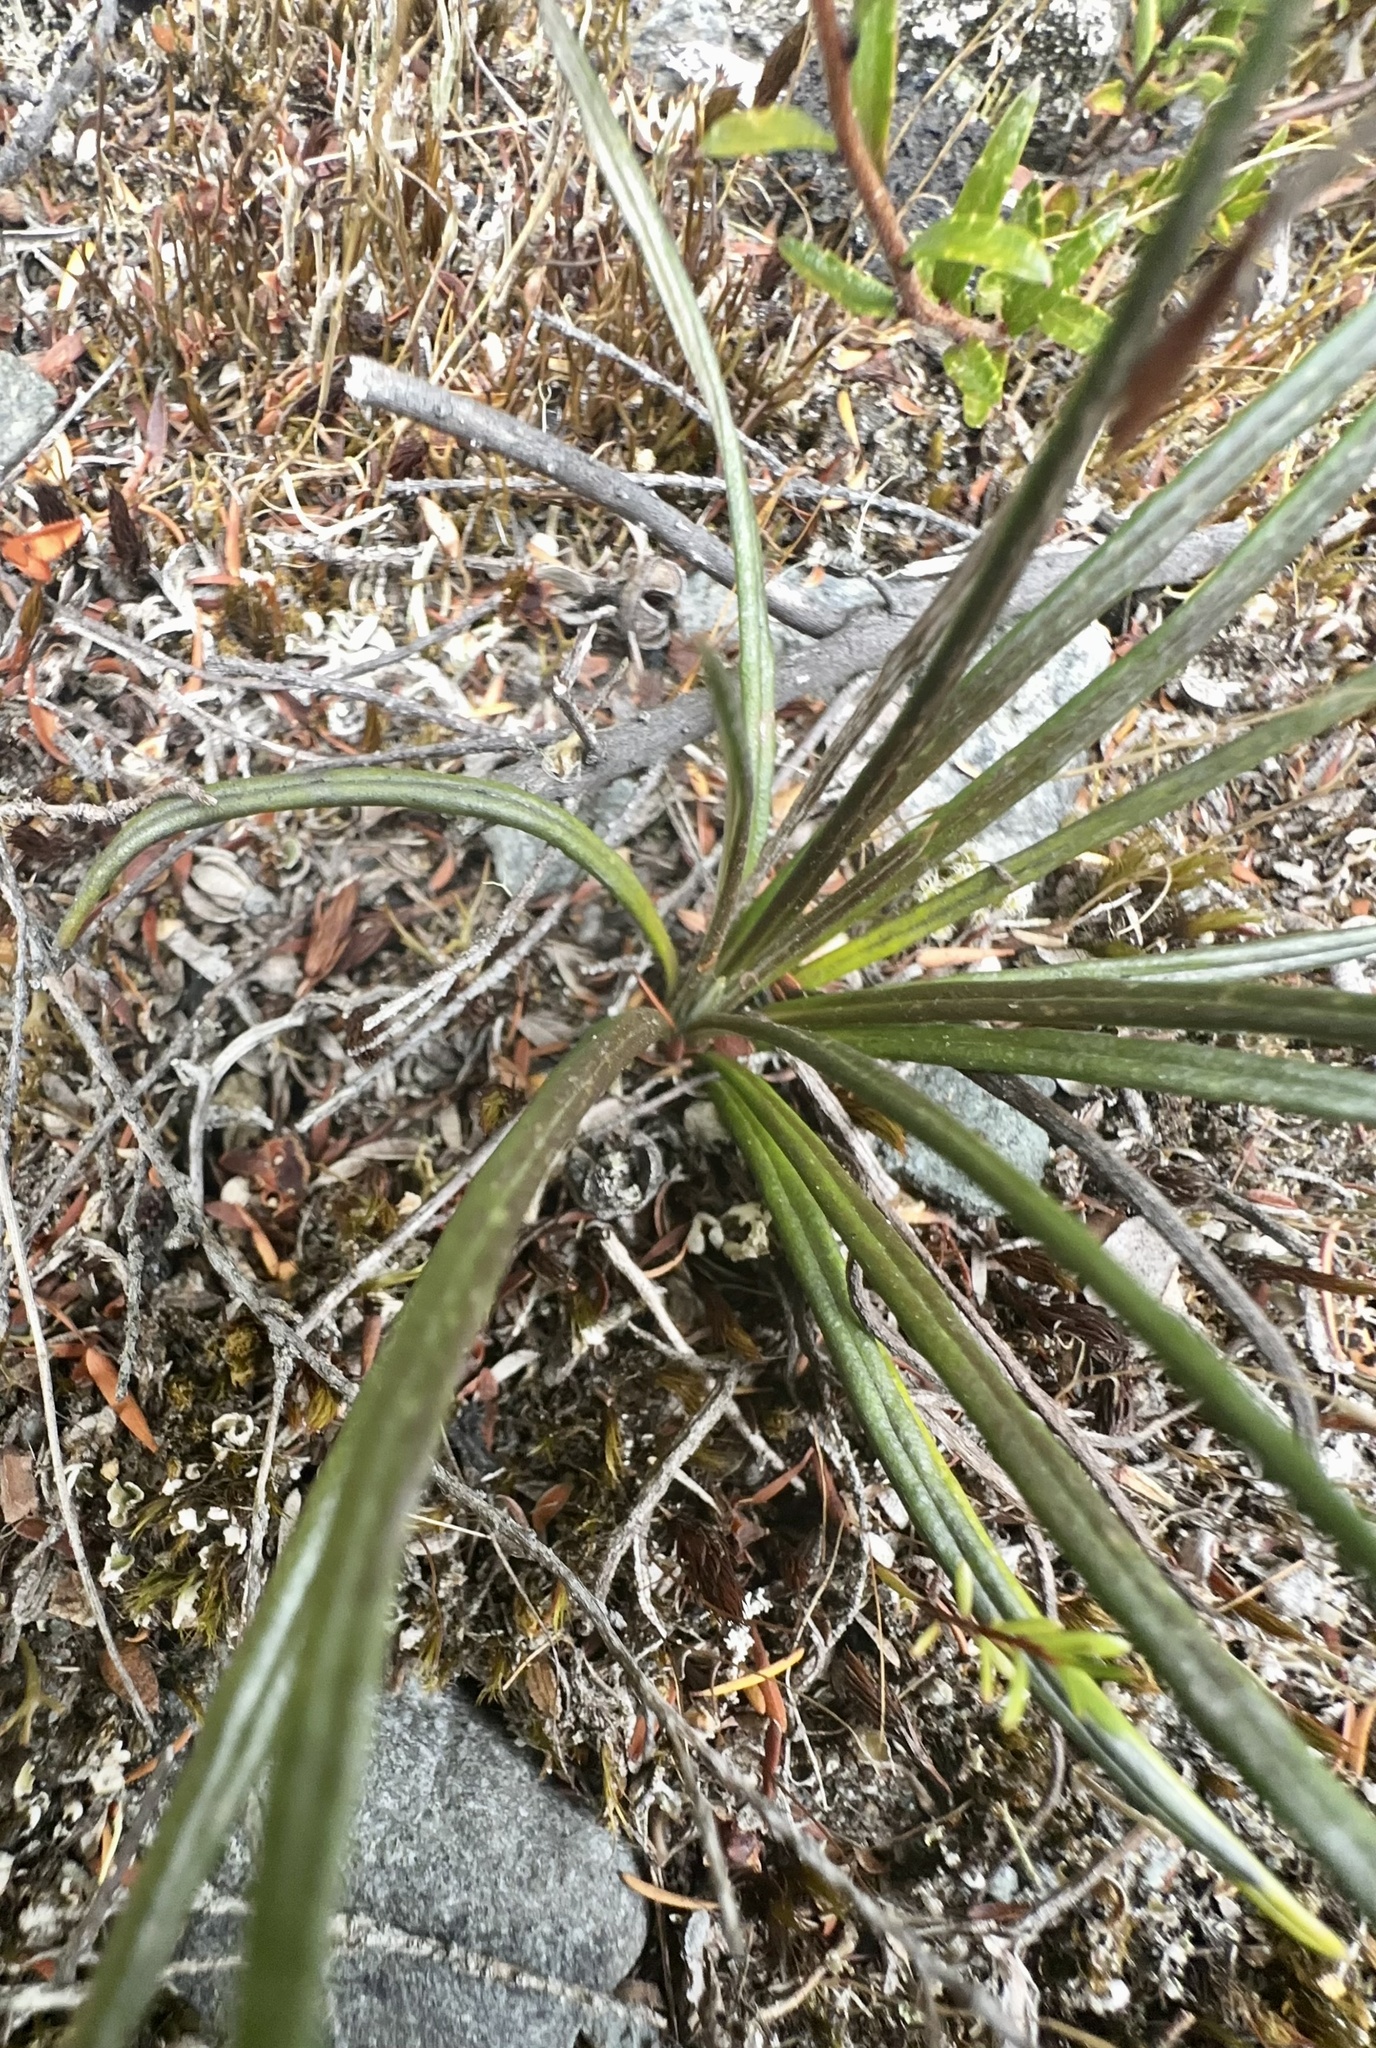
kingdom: Plantae
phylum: Tracheophyta
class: Magnoliopsida
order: Asterales
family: Asteraceae
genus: Celmisia
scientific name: Celmisia gracilenta
